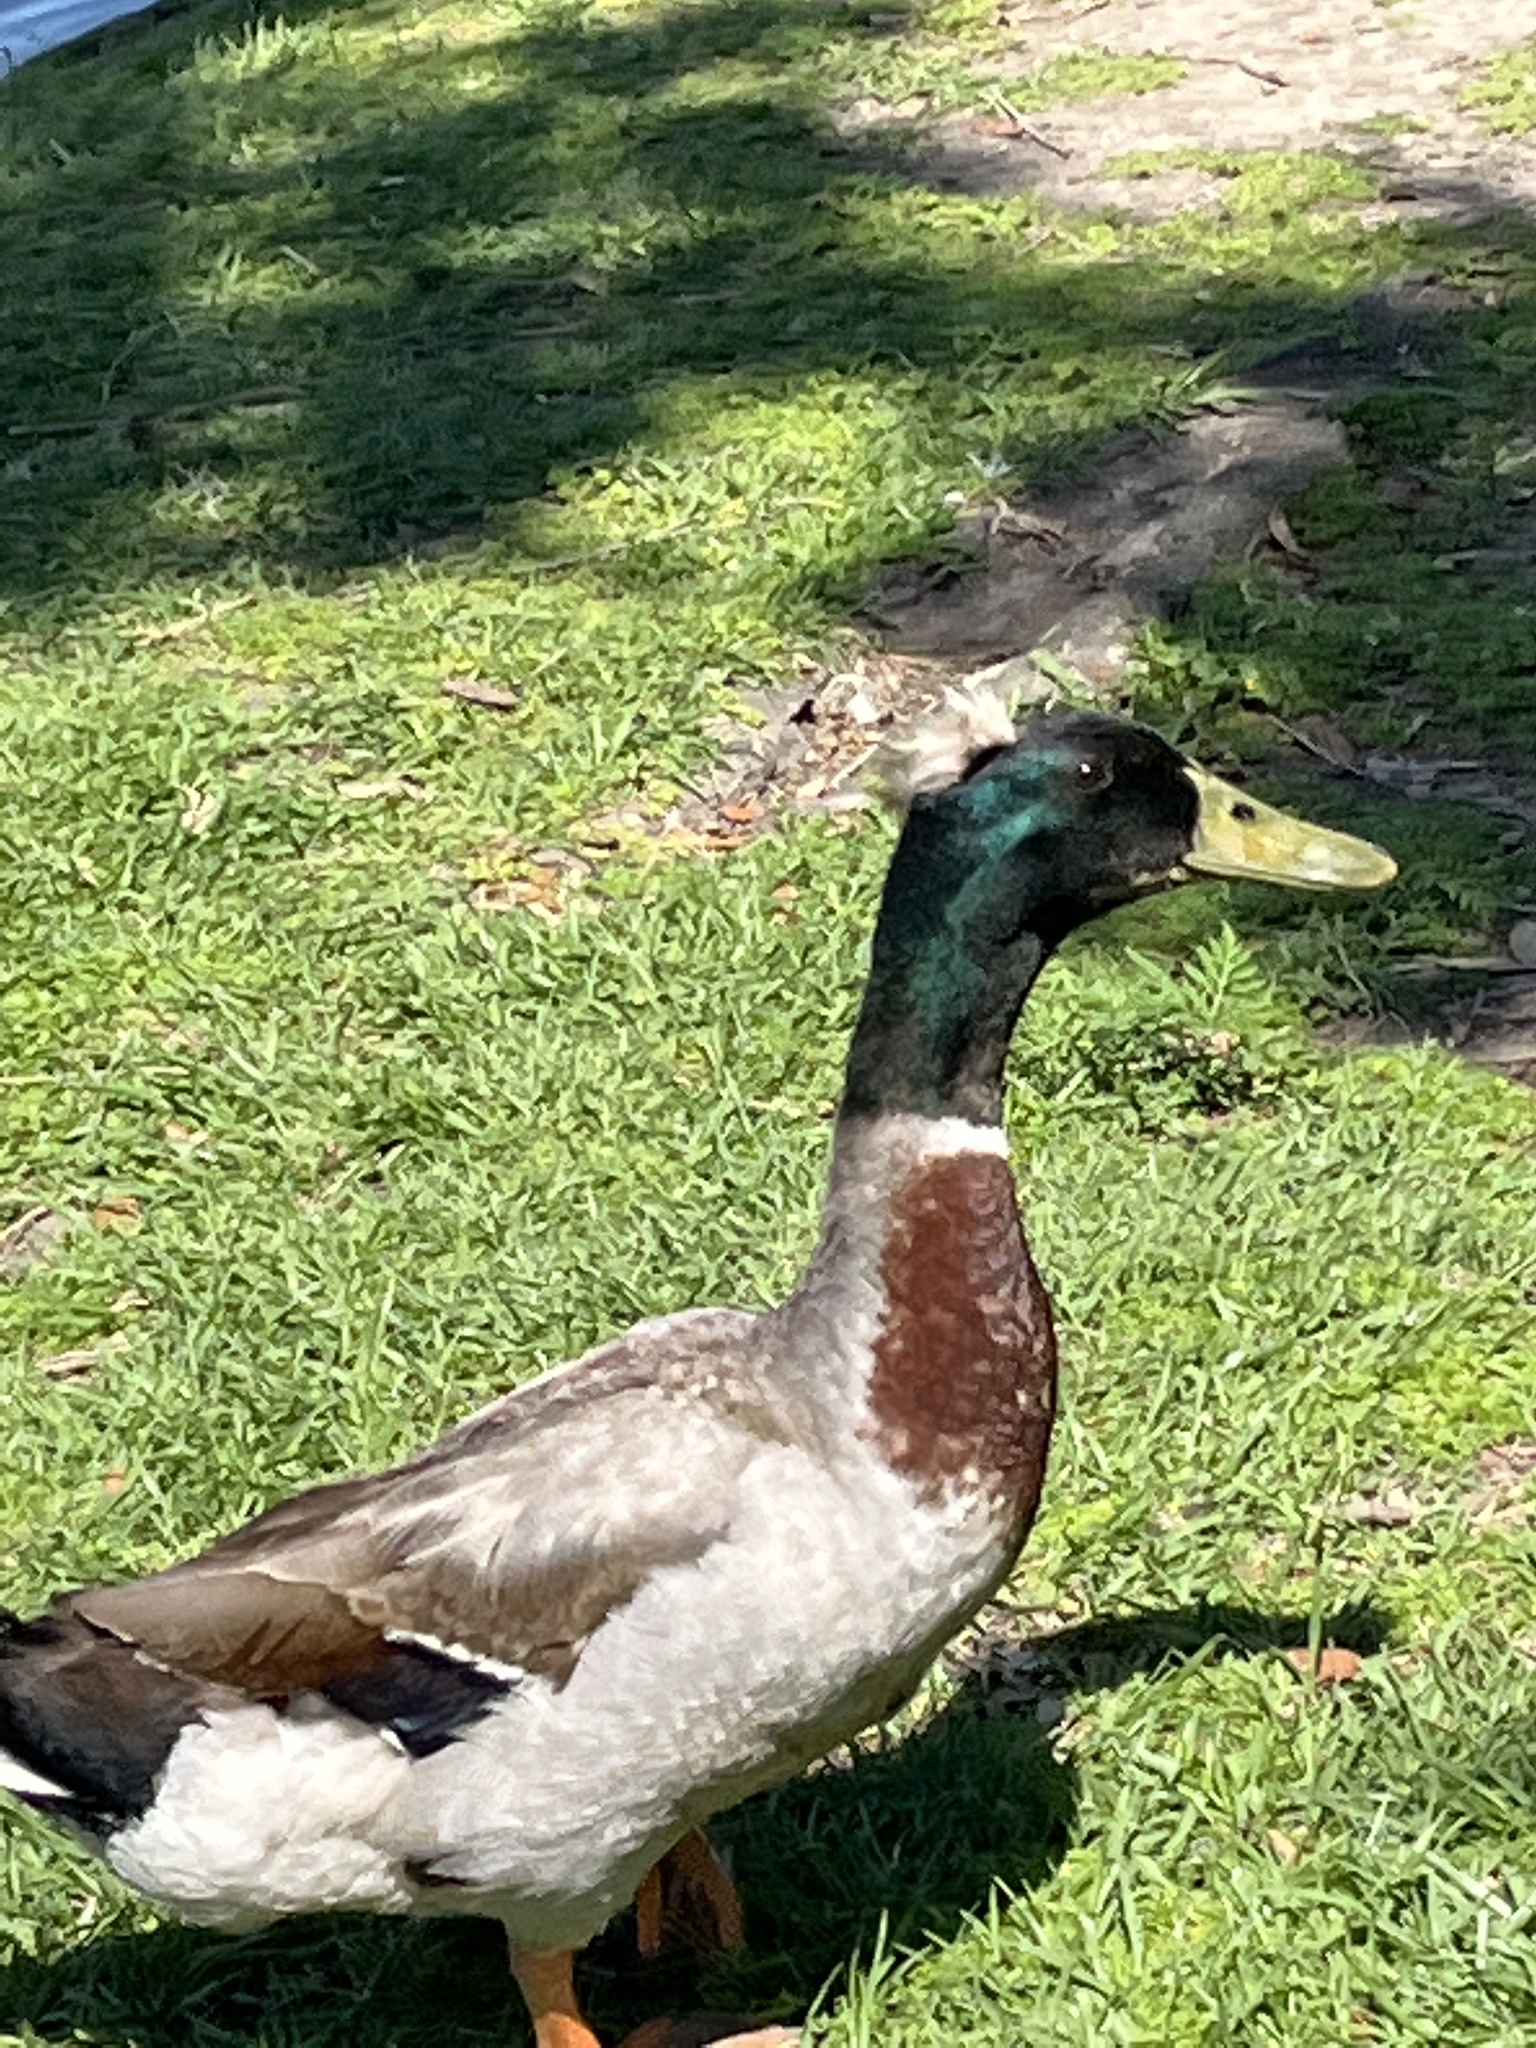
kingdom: Animalia
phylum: Chordata
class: Aves
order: Anseriformes
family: Anatidae
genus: Anas
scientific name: Anas platyrhynchos
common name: Mallard
